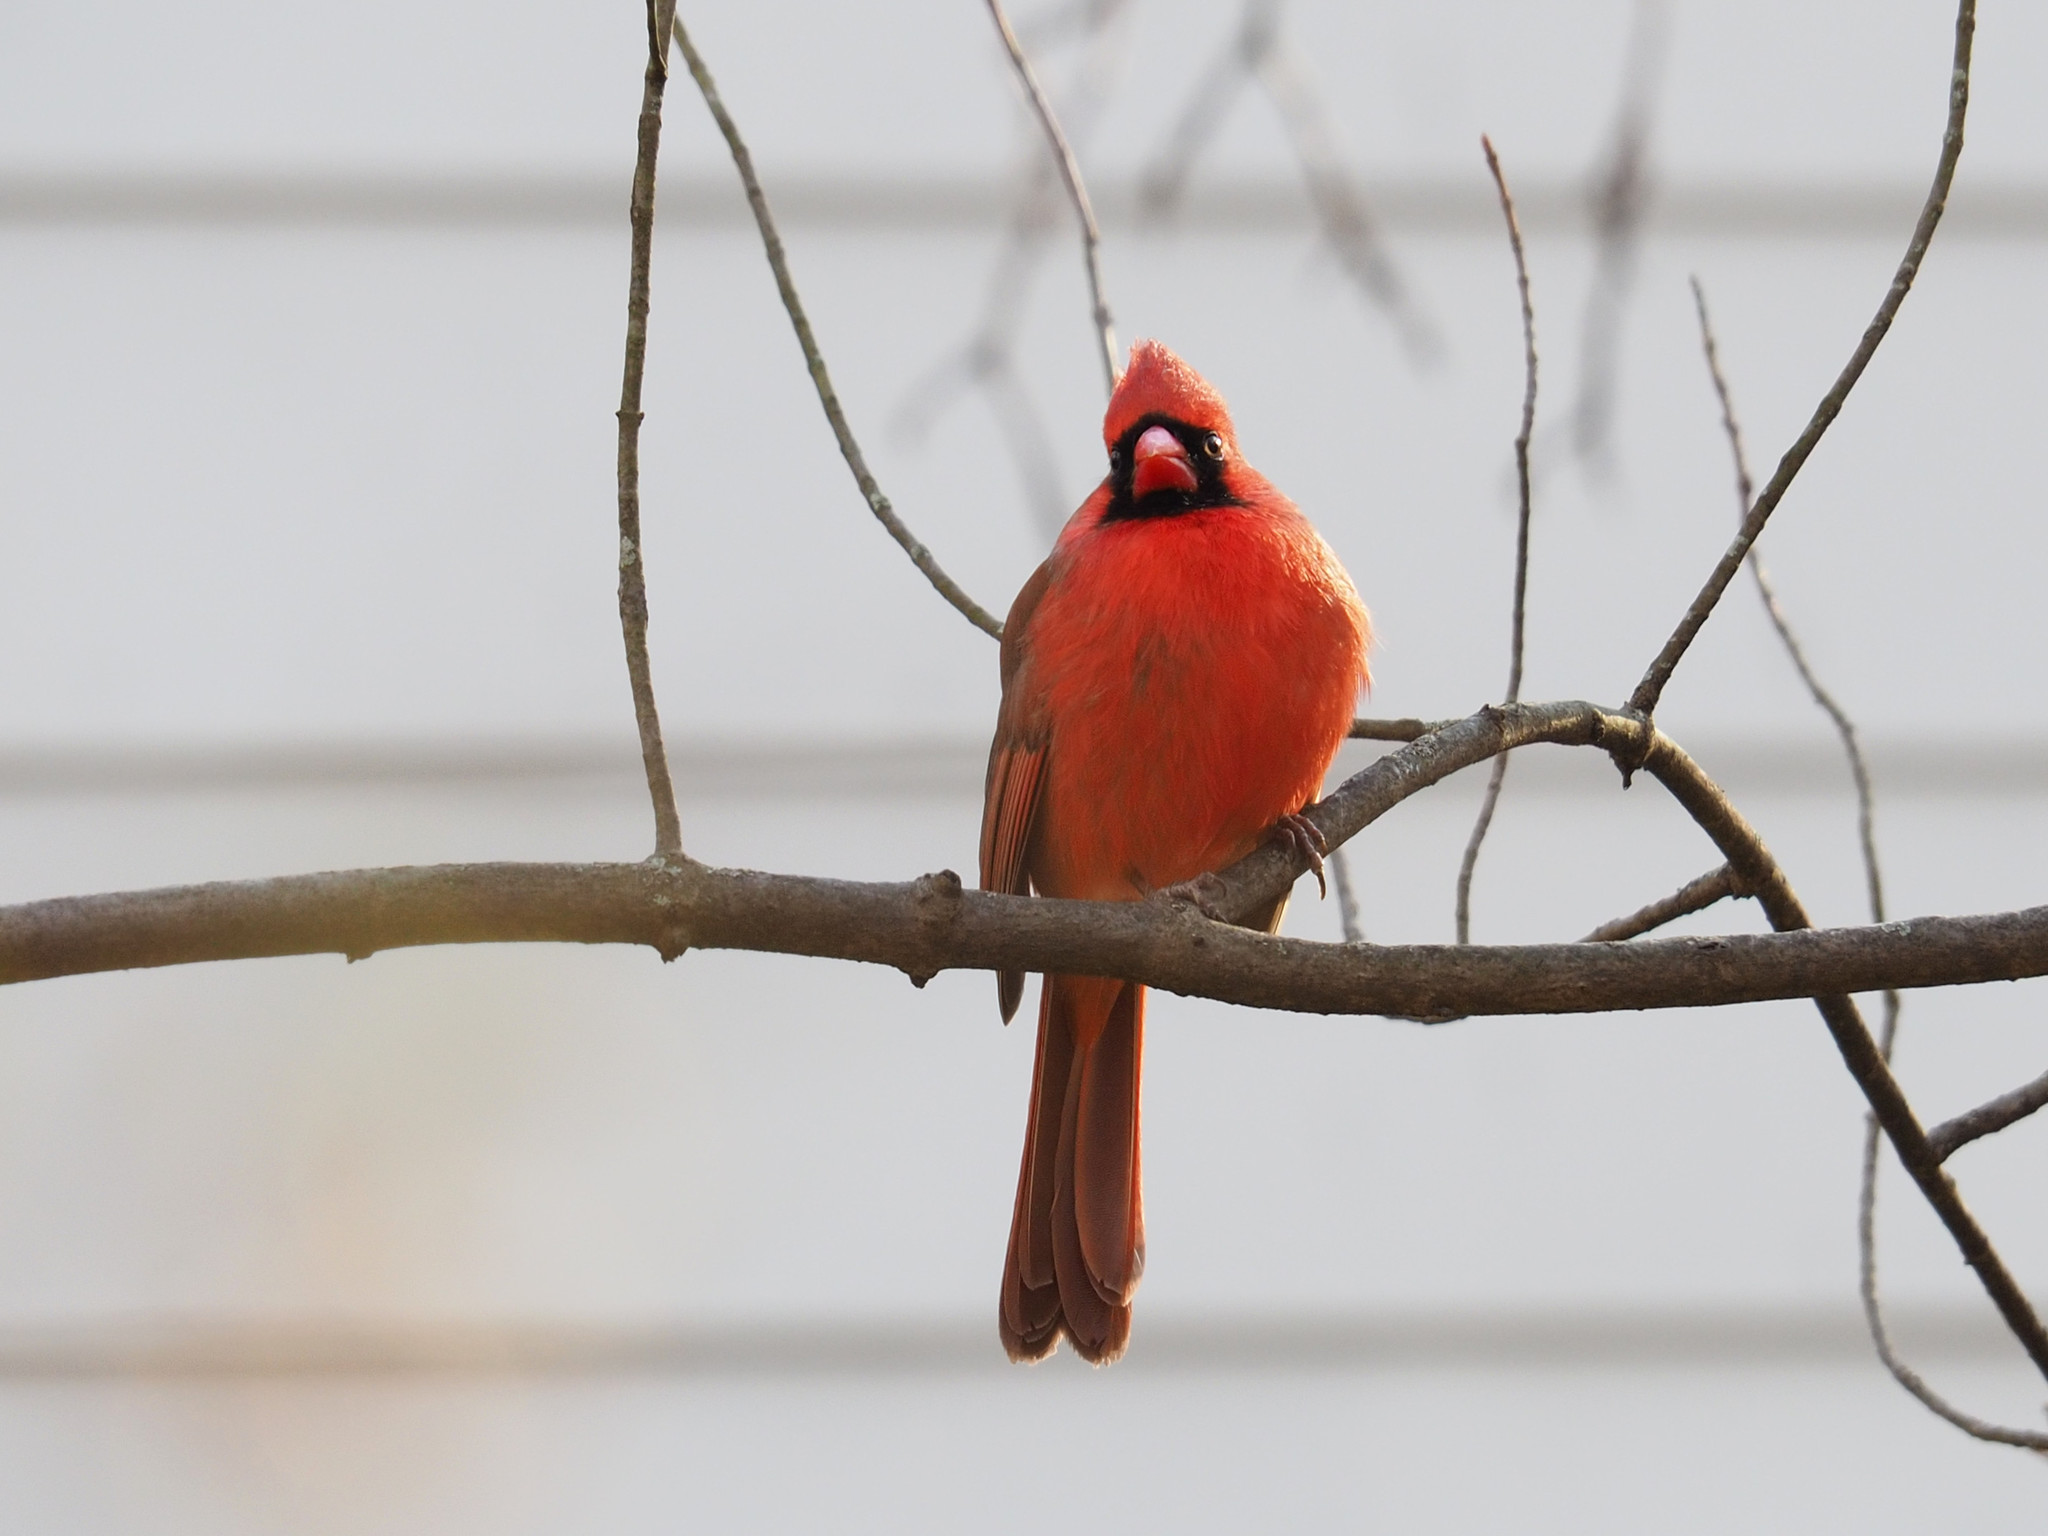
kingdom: Animalia
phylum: Chordata
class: Aves
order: Passeriformes
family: Cardinalidae
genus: Cardinalis
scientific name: Cardinalis cardinalis
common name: Northern cardinal
